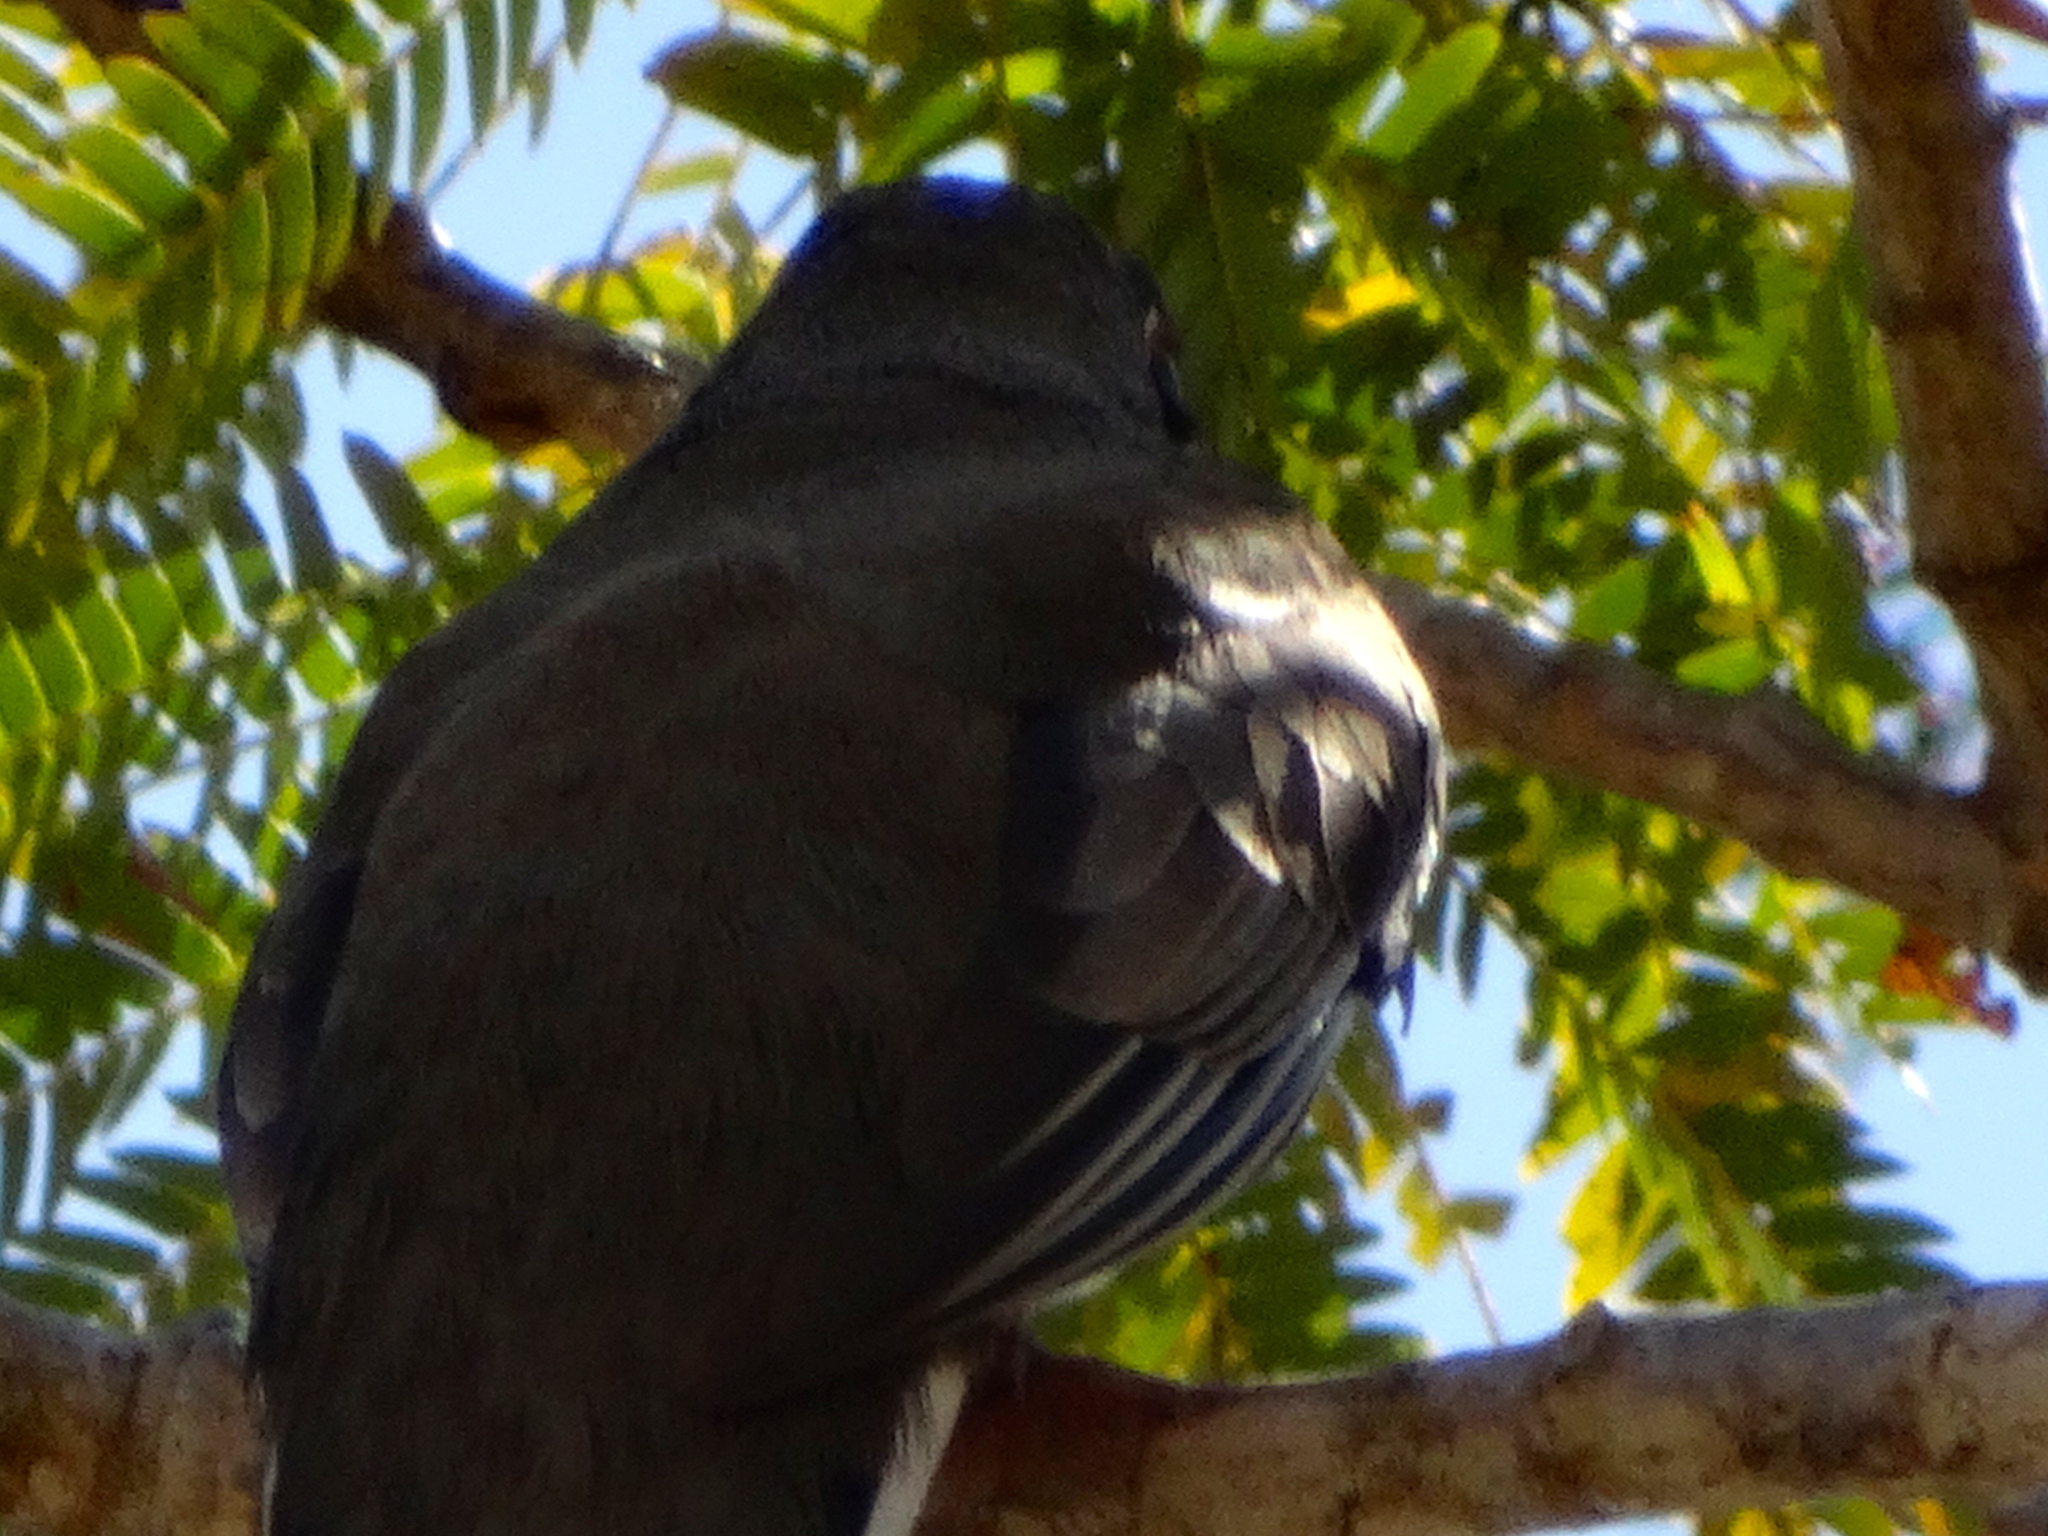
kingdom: Animalia
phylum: Chordata
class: Aves
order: Trogoniformes
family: Trogonidae
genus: Trogon
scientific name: Trogon elegans
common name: Elegant trogon
